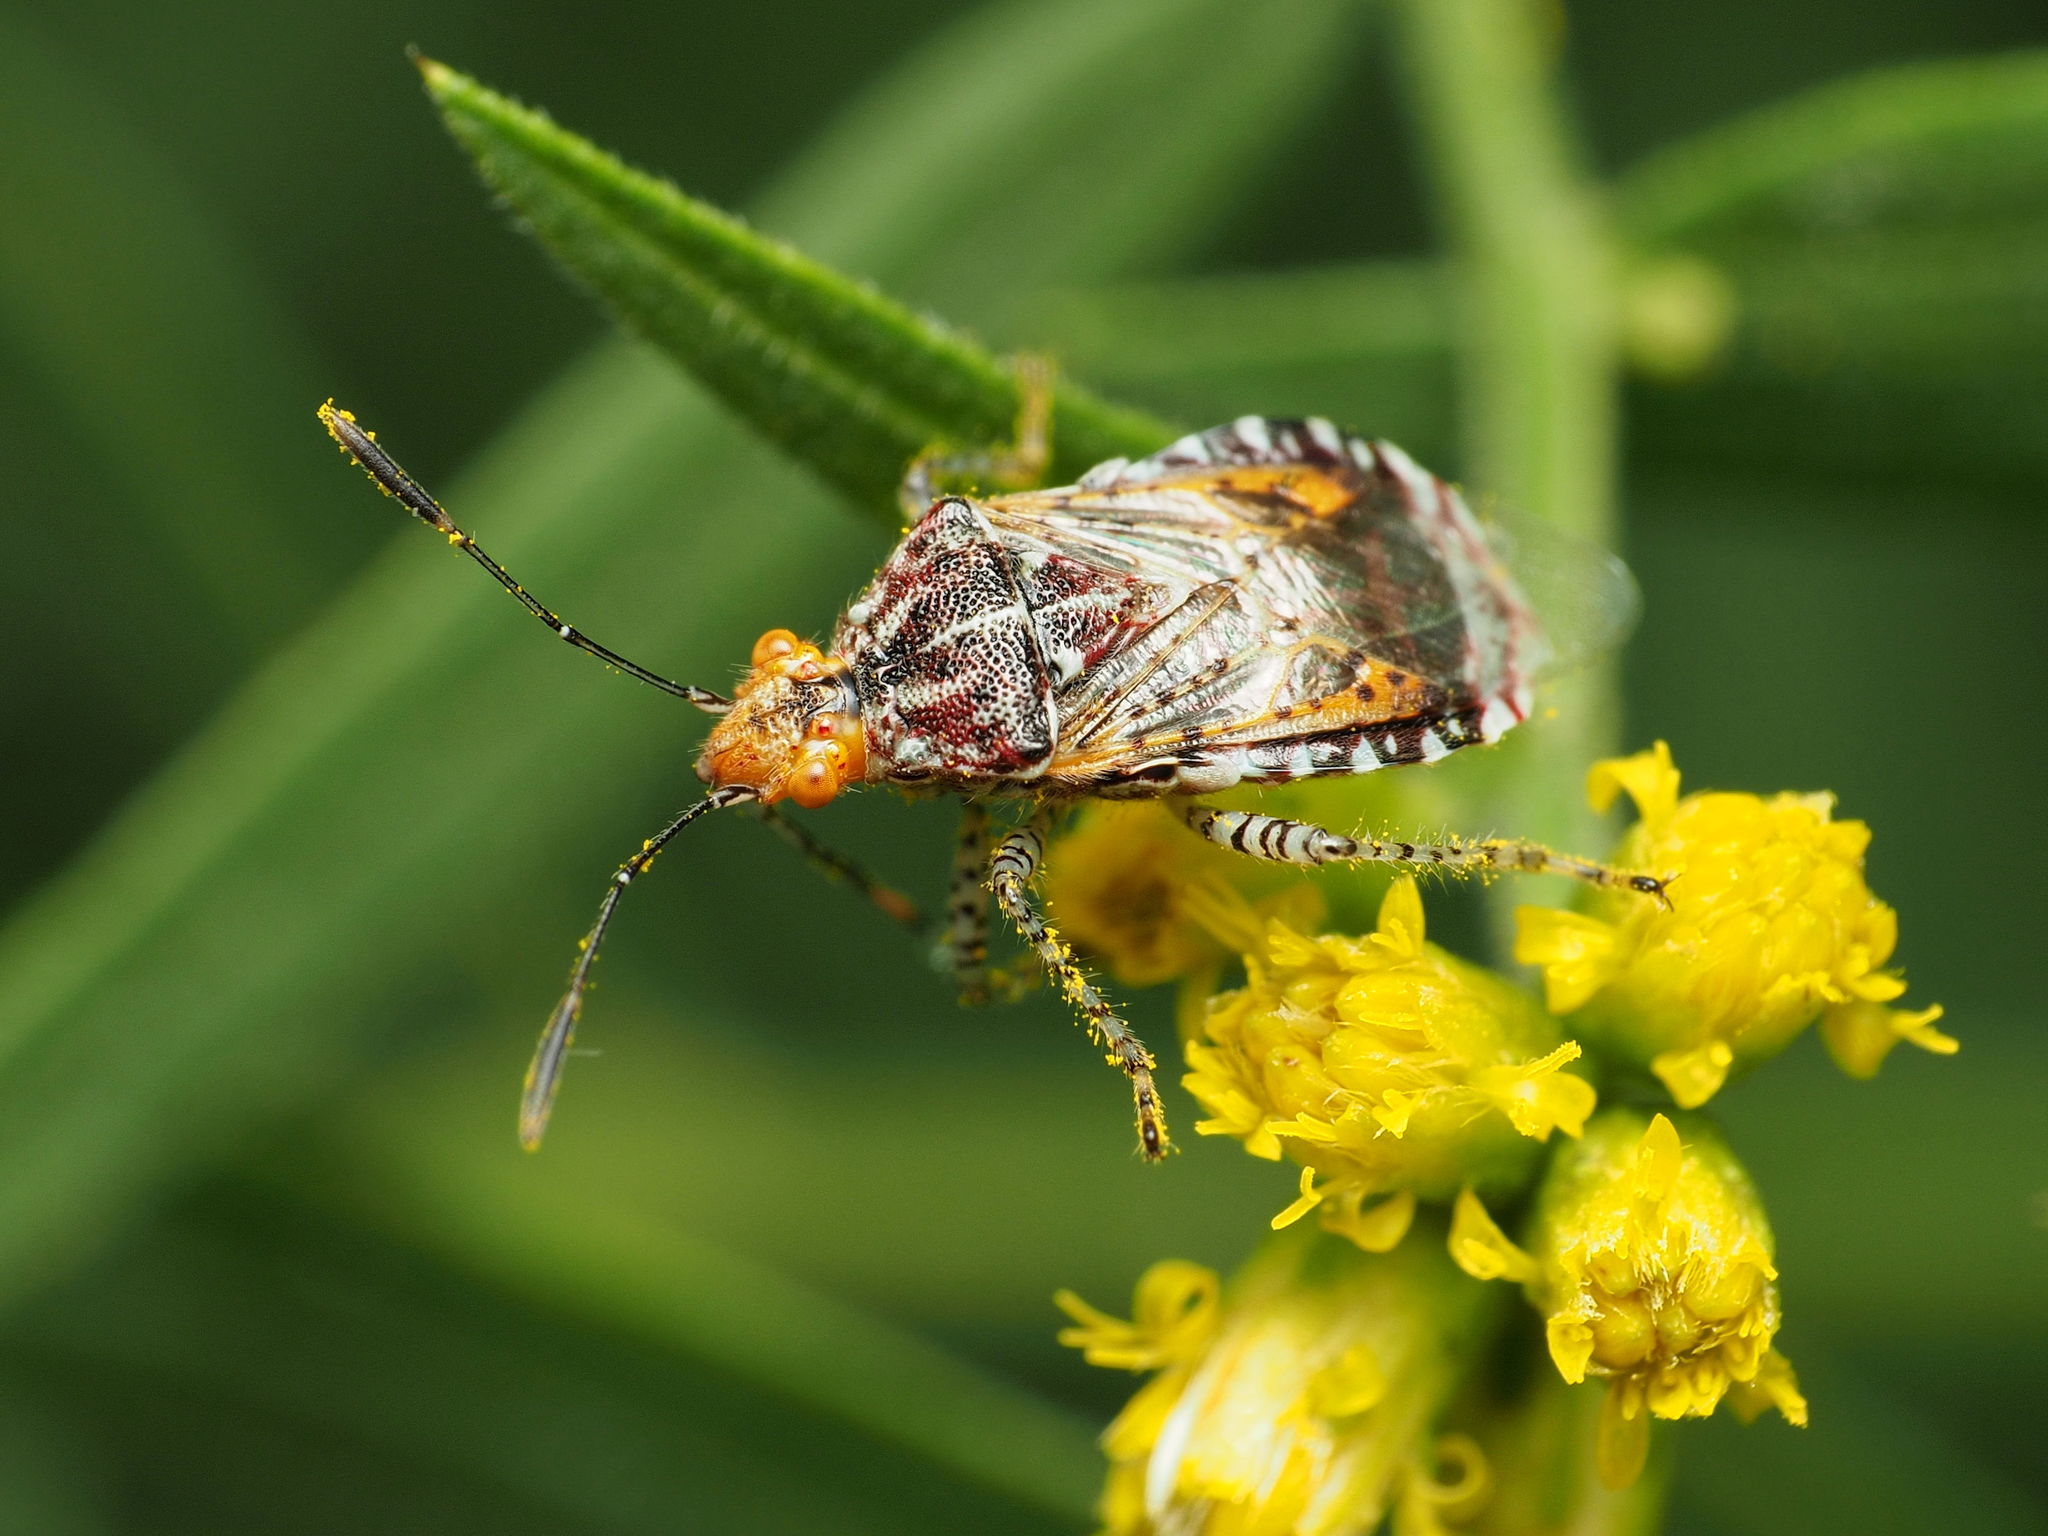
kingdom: Animalia
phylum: Arthropoda
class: Insecta
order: Hemiptera
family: Rhopalidae
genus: Niesthrea
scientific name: Niesthrea louisianica
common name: Scentless plant bug
